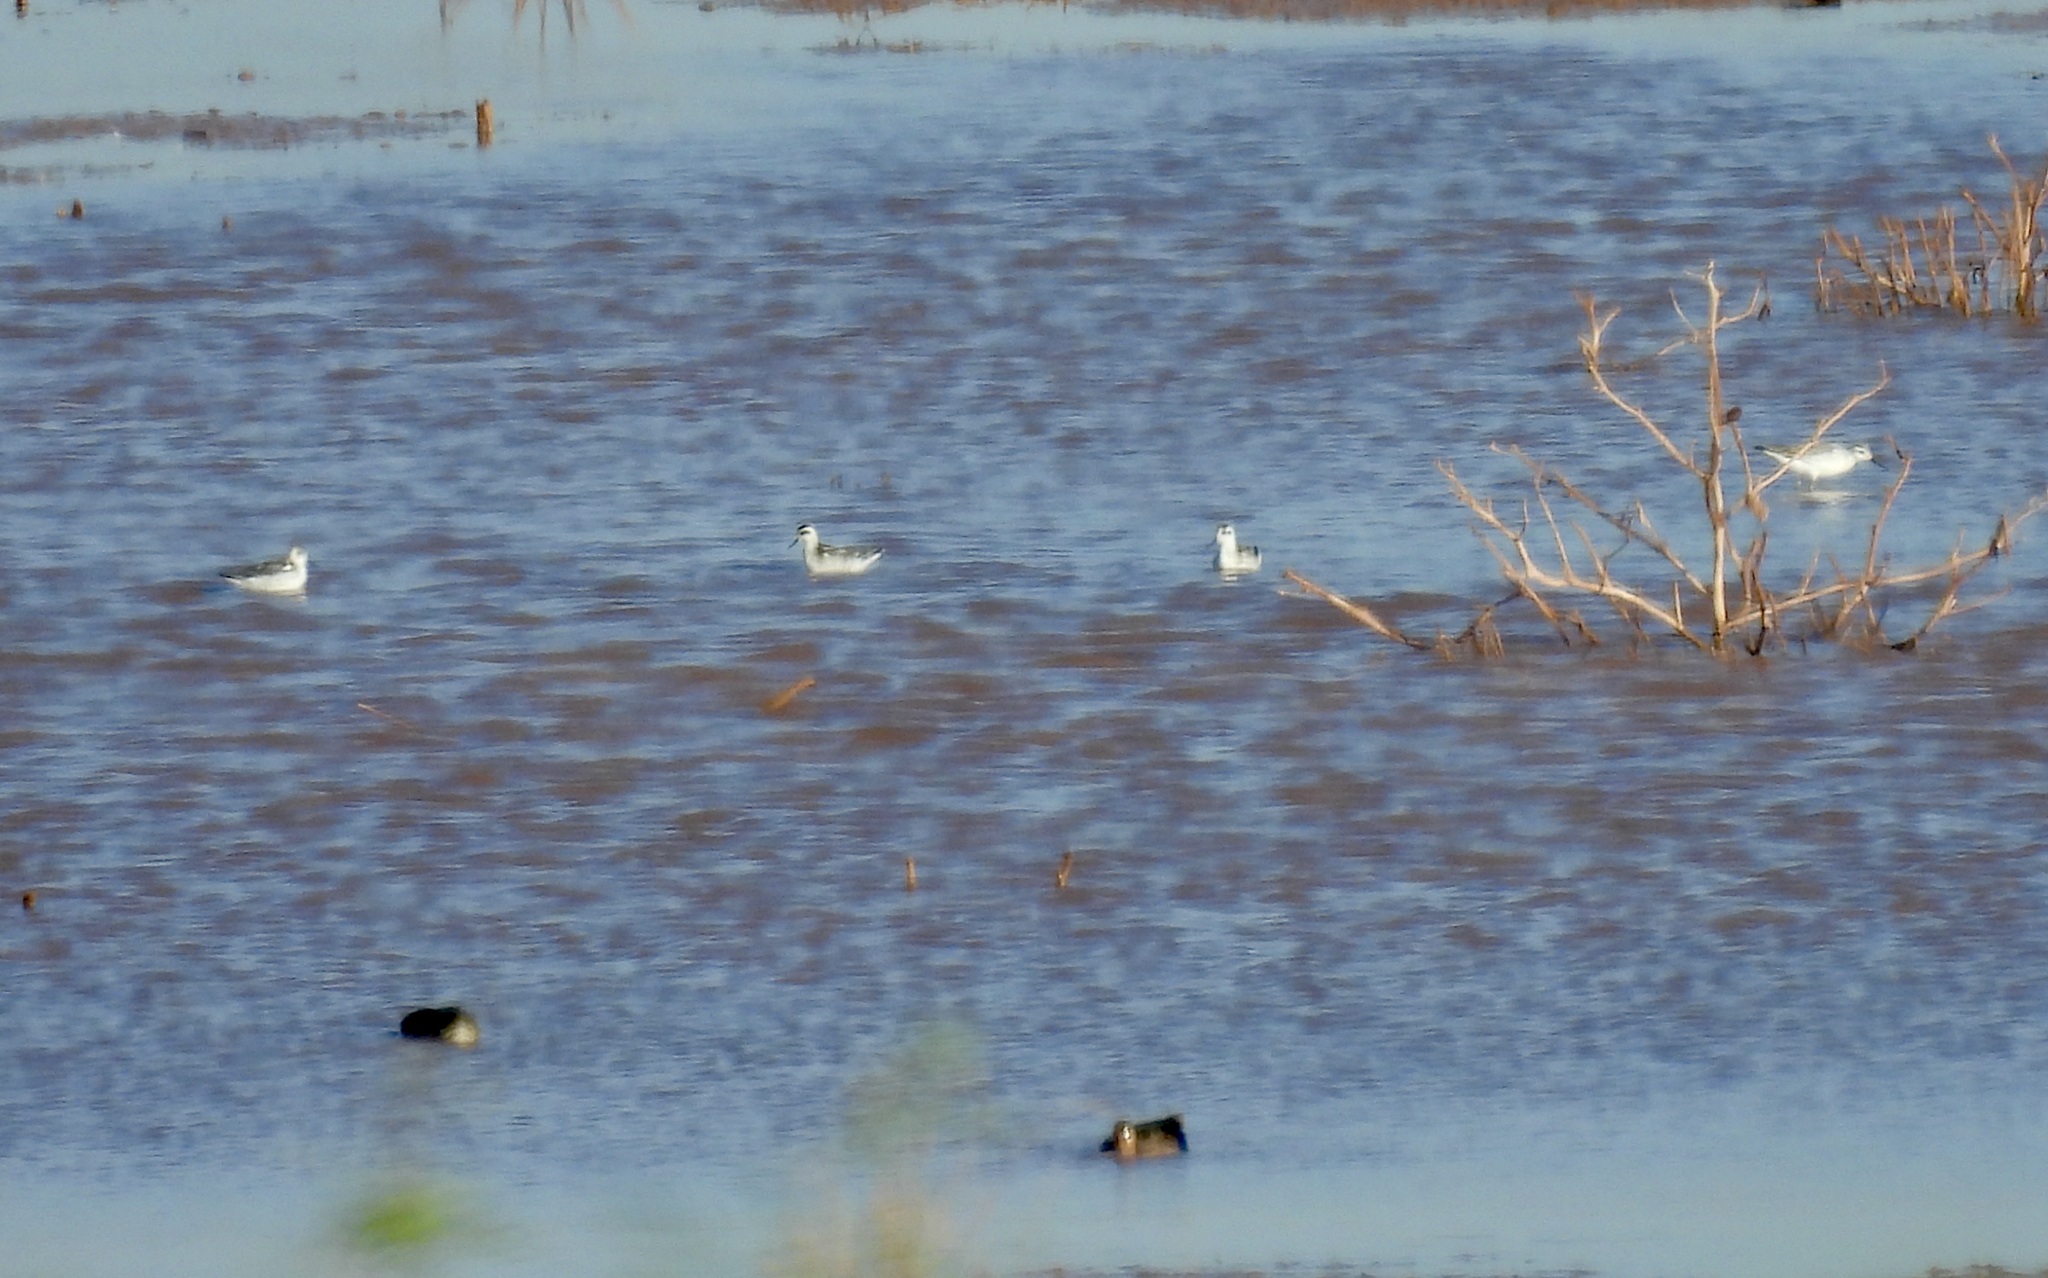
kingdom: Animalia
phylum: Chordata
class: Aves
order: Charadriiformes
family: Scolopacidae
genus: Phalaropus
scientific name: Phalaropus lobatus
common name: Red-necked phalarope
